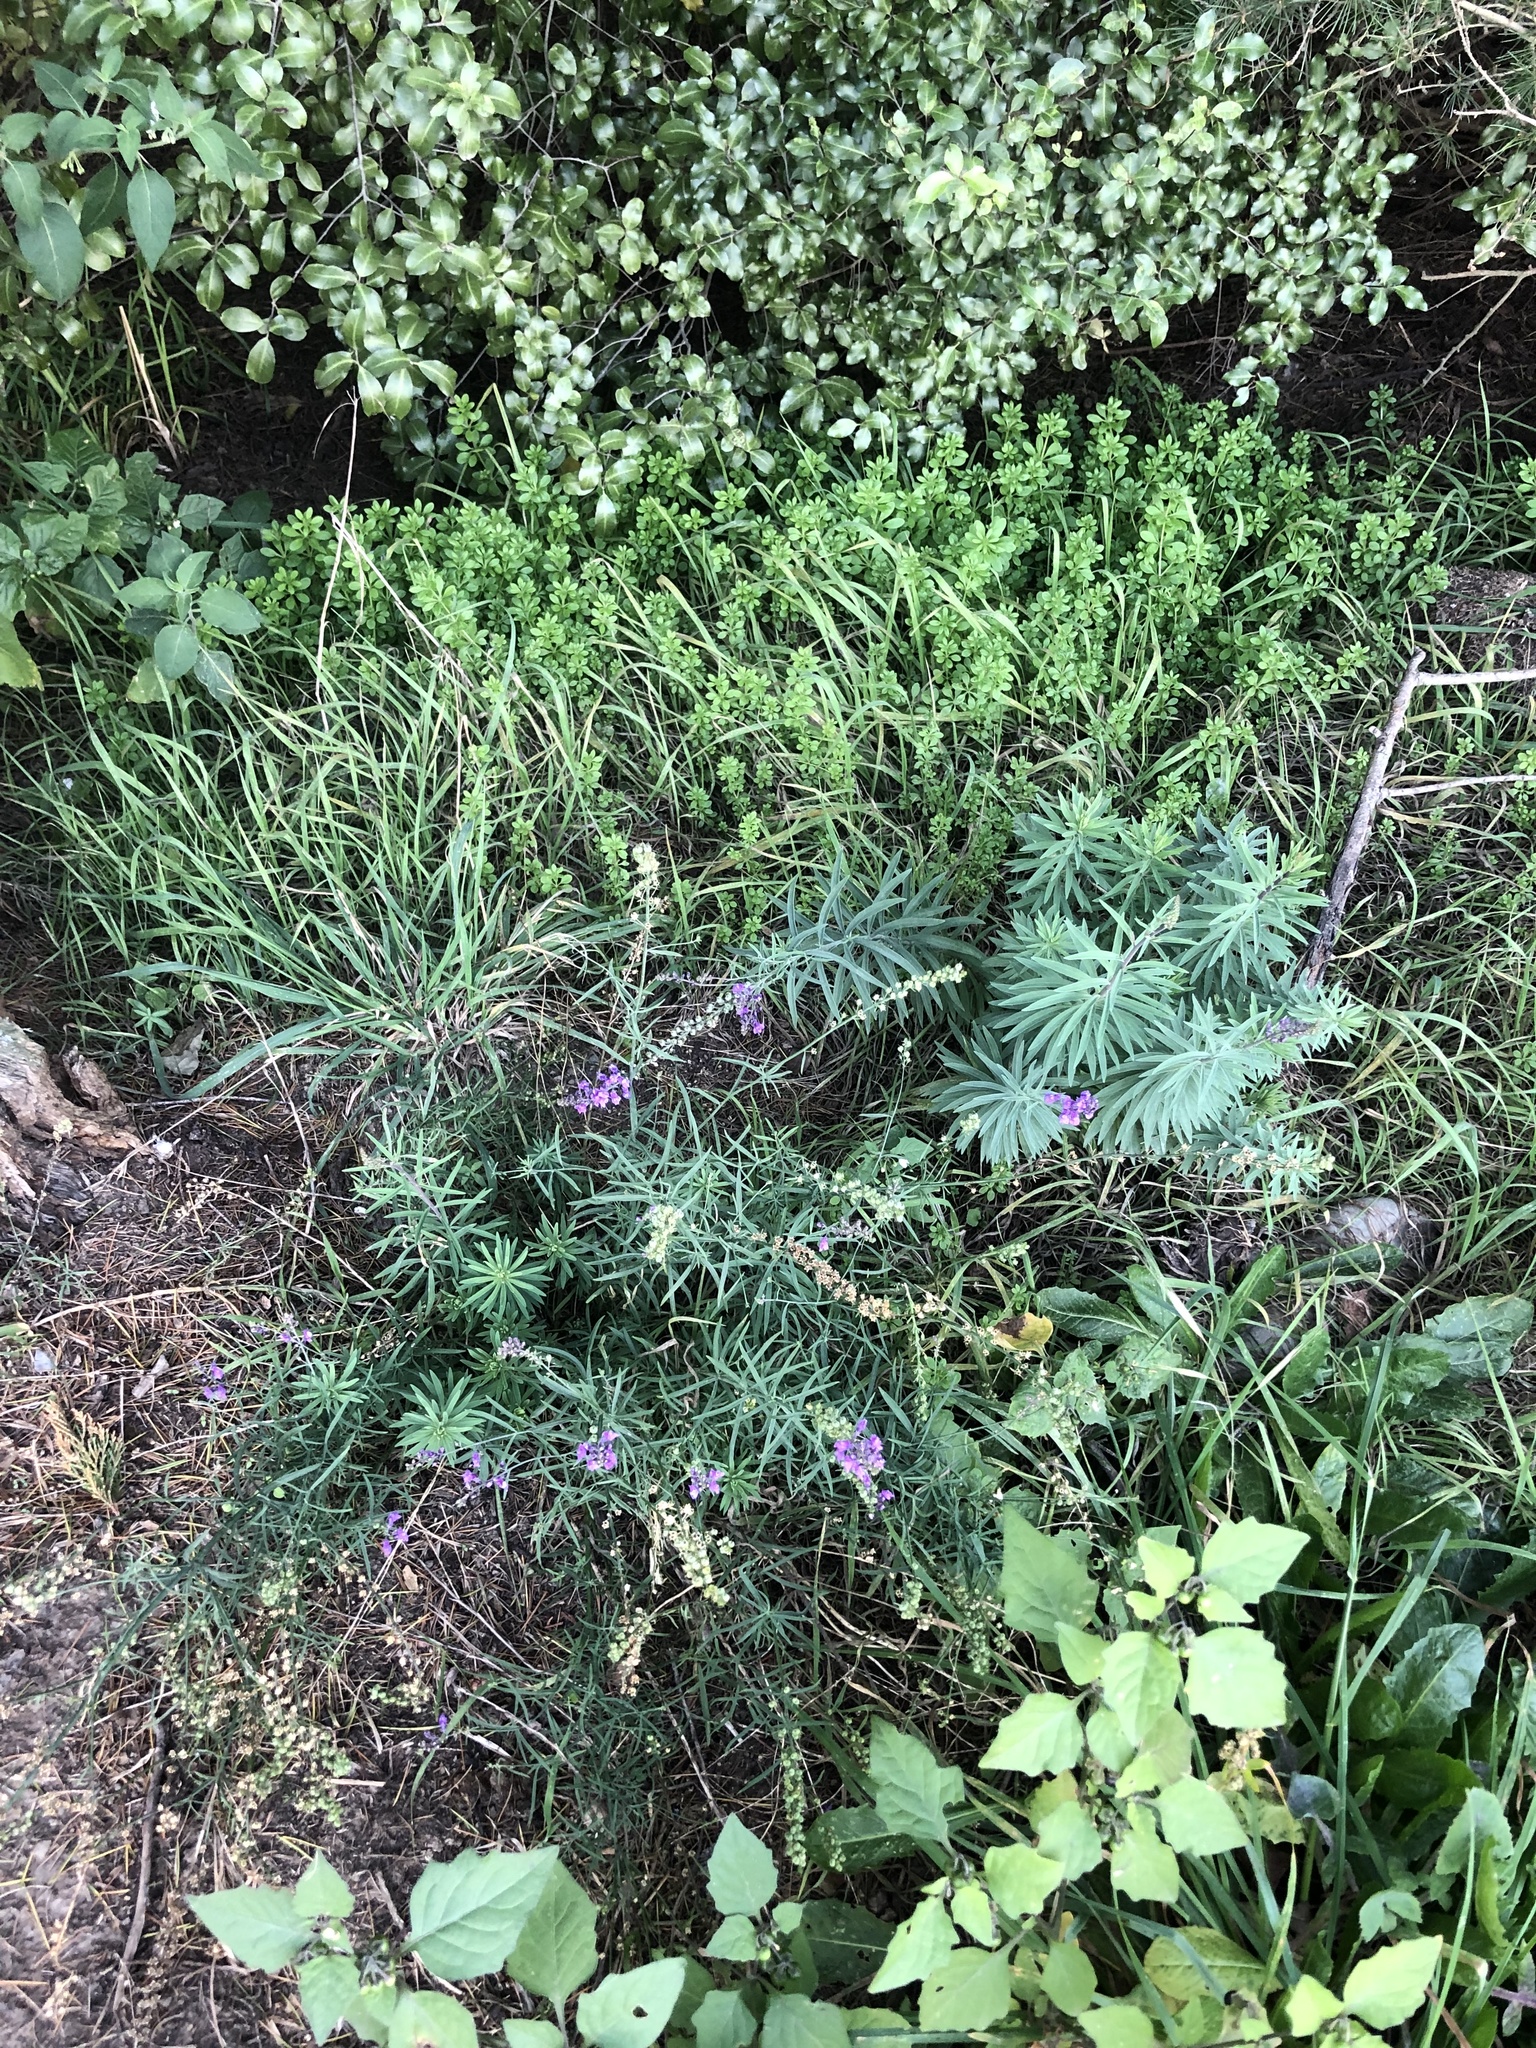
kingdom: Plantae
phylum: Tracheophyta
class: Magnoliopsida
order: Lamiales
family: Plantaginaceae
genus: Linaria
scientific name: Linaria purpurea
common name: Purple toadflax
